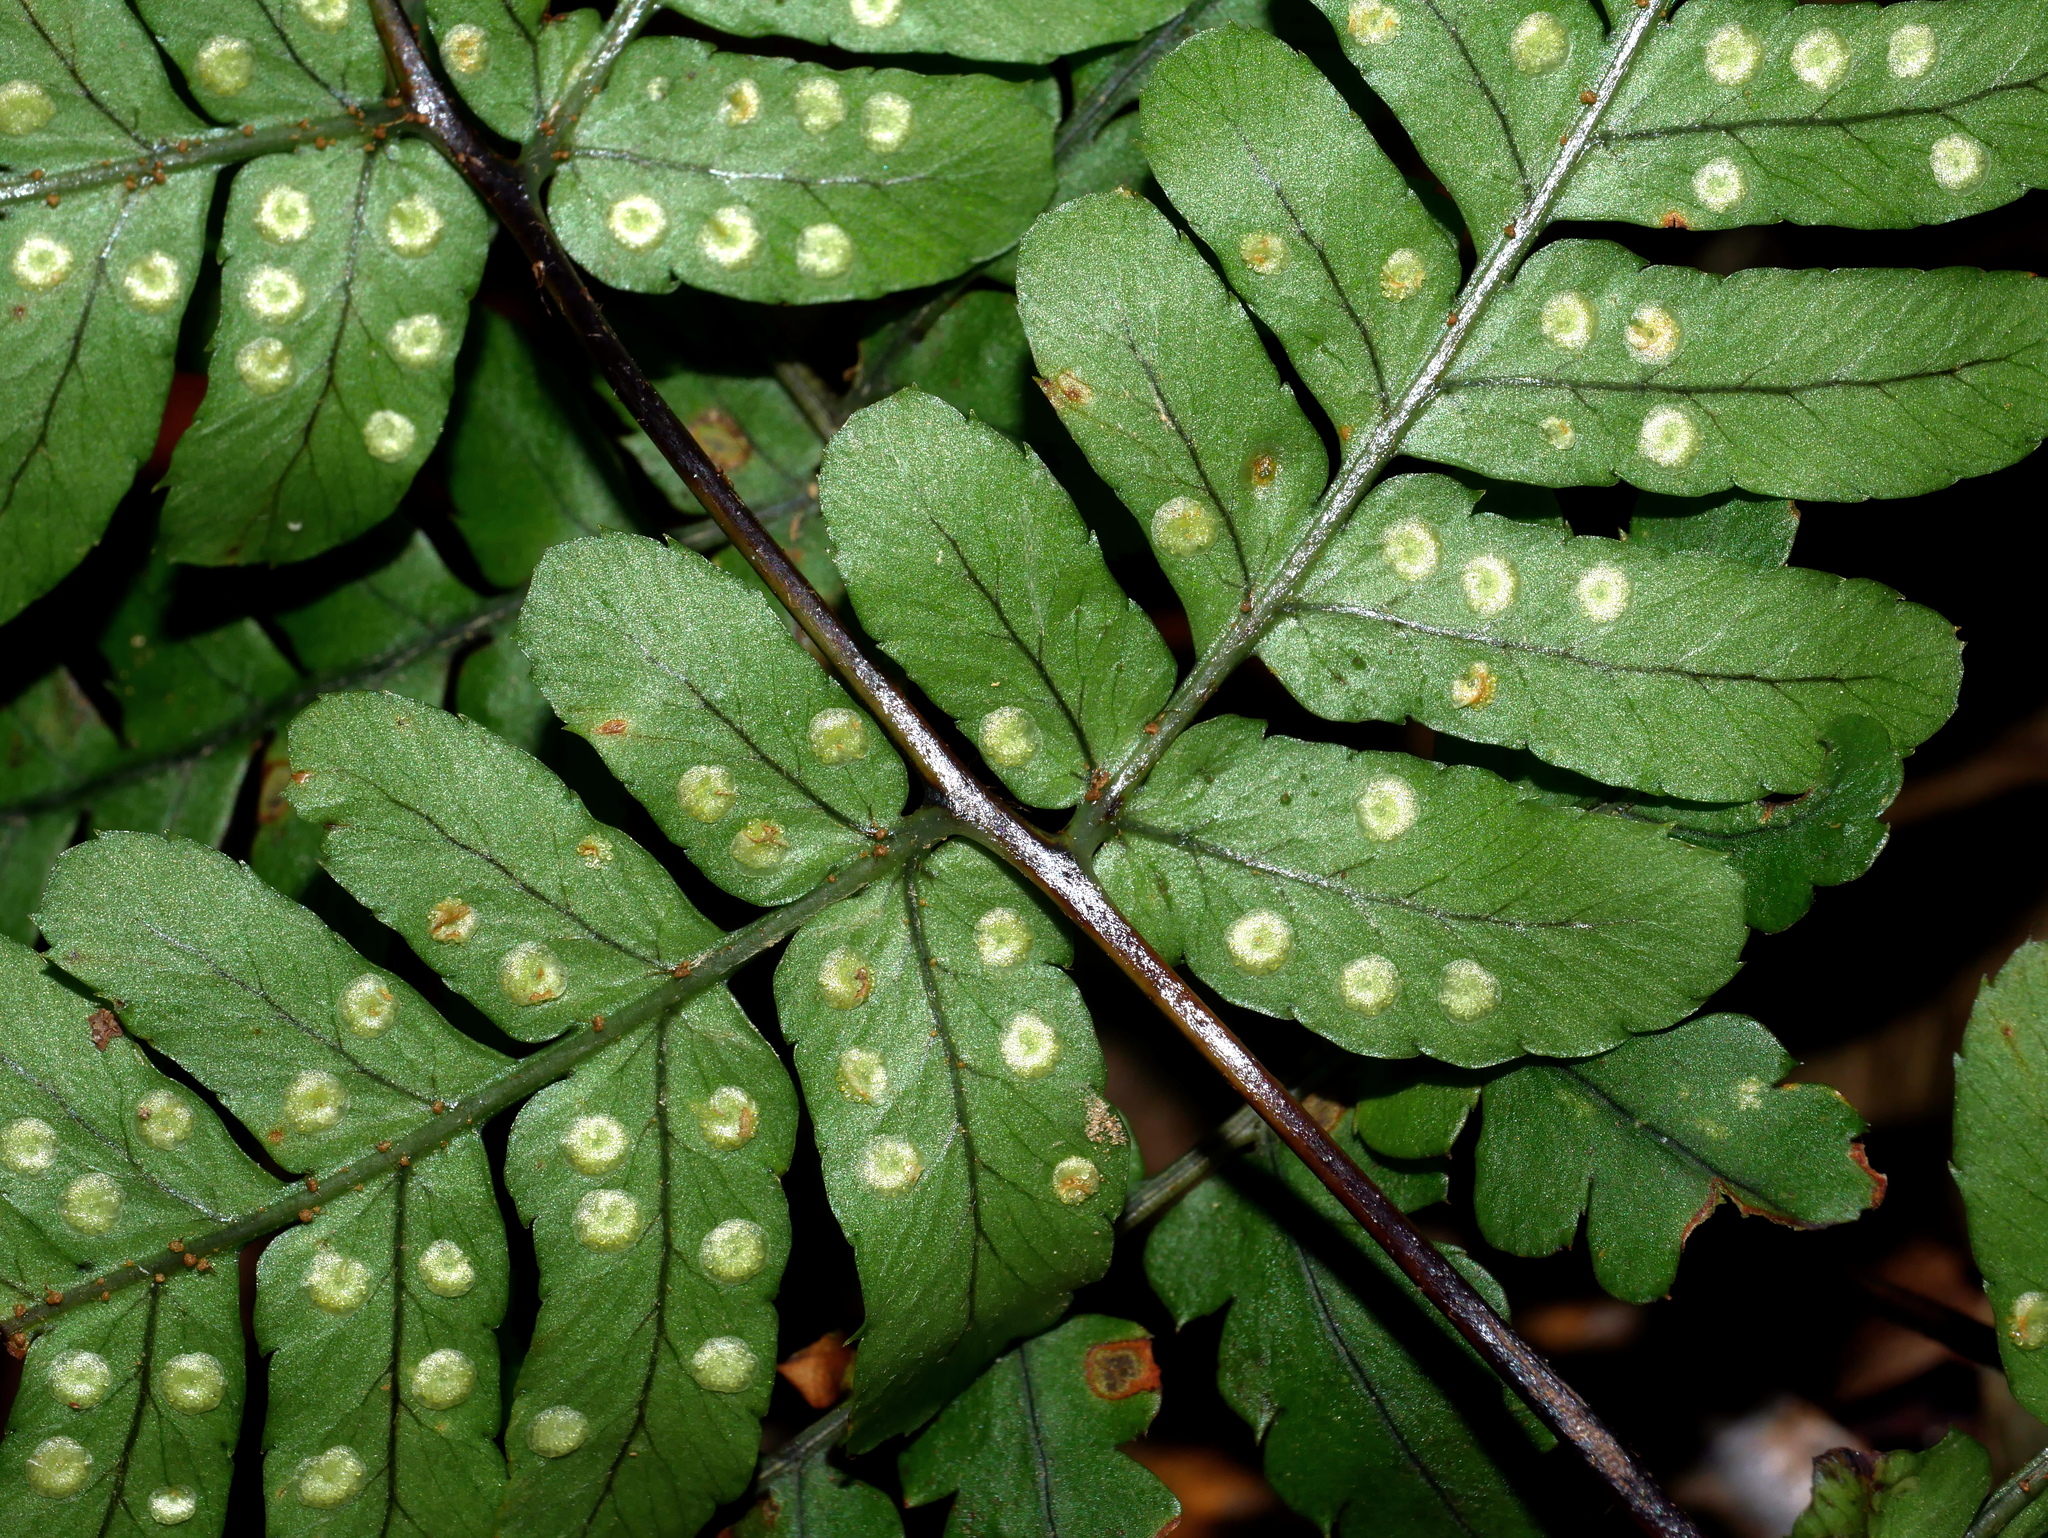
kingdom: Plantae
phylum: Tracheophyta
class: Polypodiopsida
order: Polypodiales
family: Dryopteridaceae
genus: Dryopteris
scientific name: Dryopteris subtriangularis
